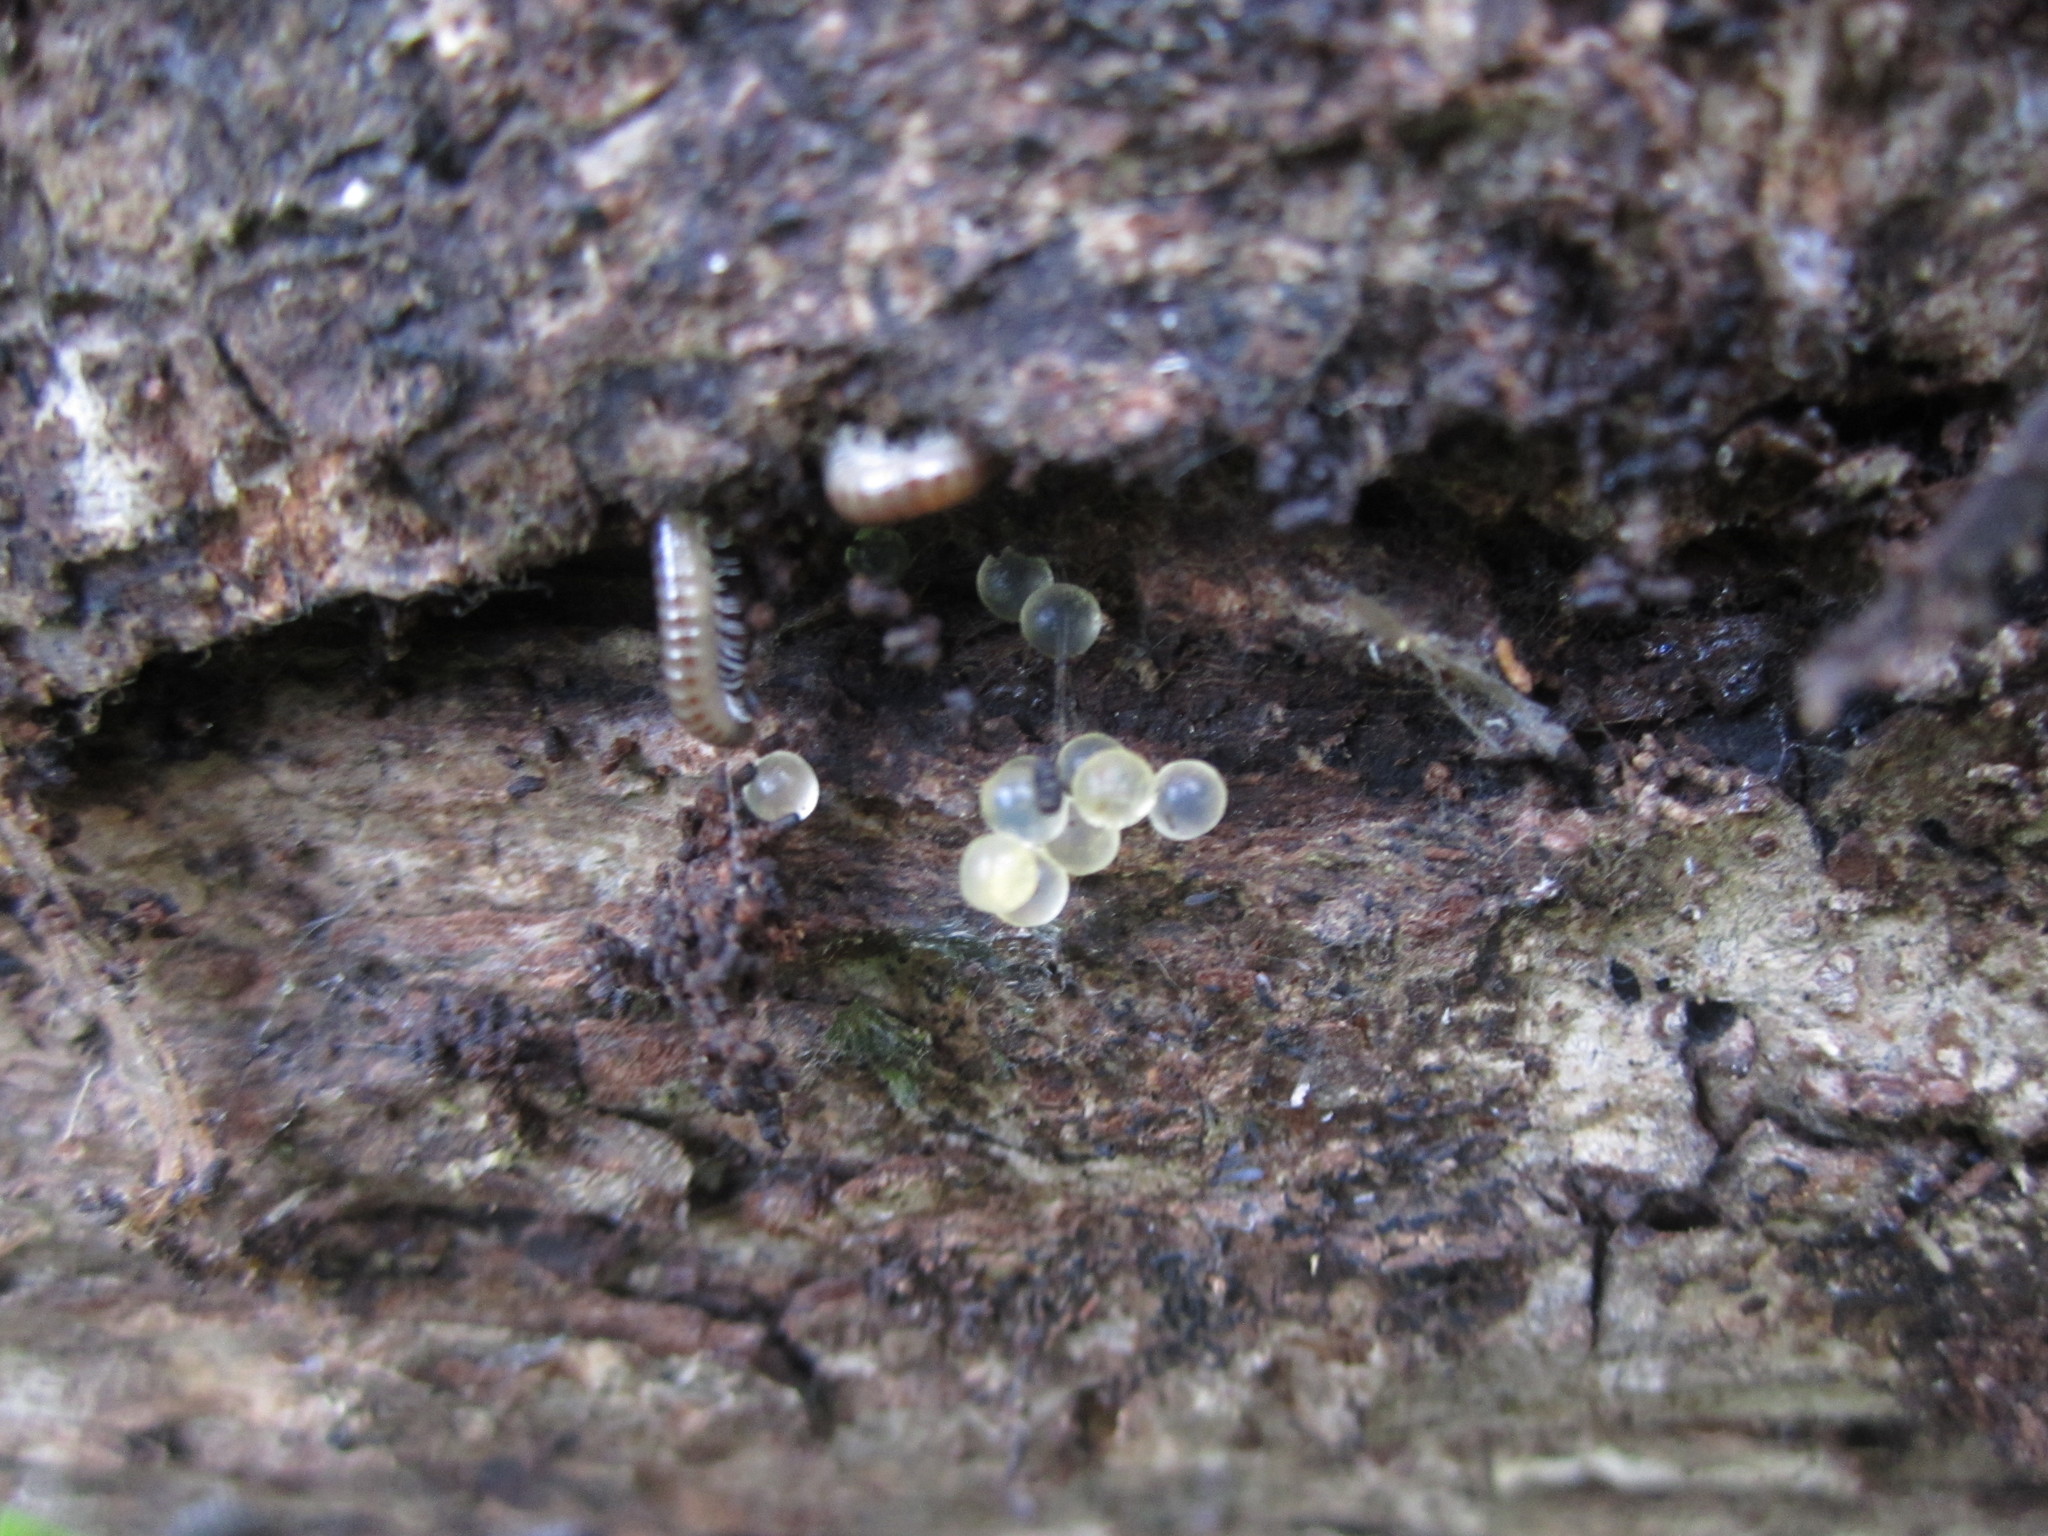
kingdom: Animalia
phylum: Mollusca
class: Gastropoda
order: Stylommatophora
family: Agriolimacidae
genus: Deroceras
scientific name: Deroceras reticulatum
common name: Gray field slug
